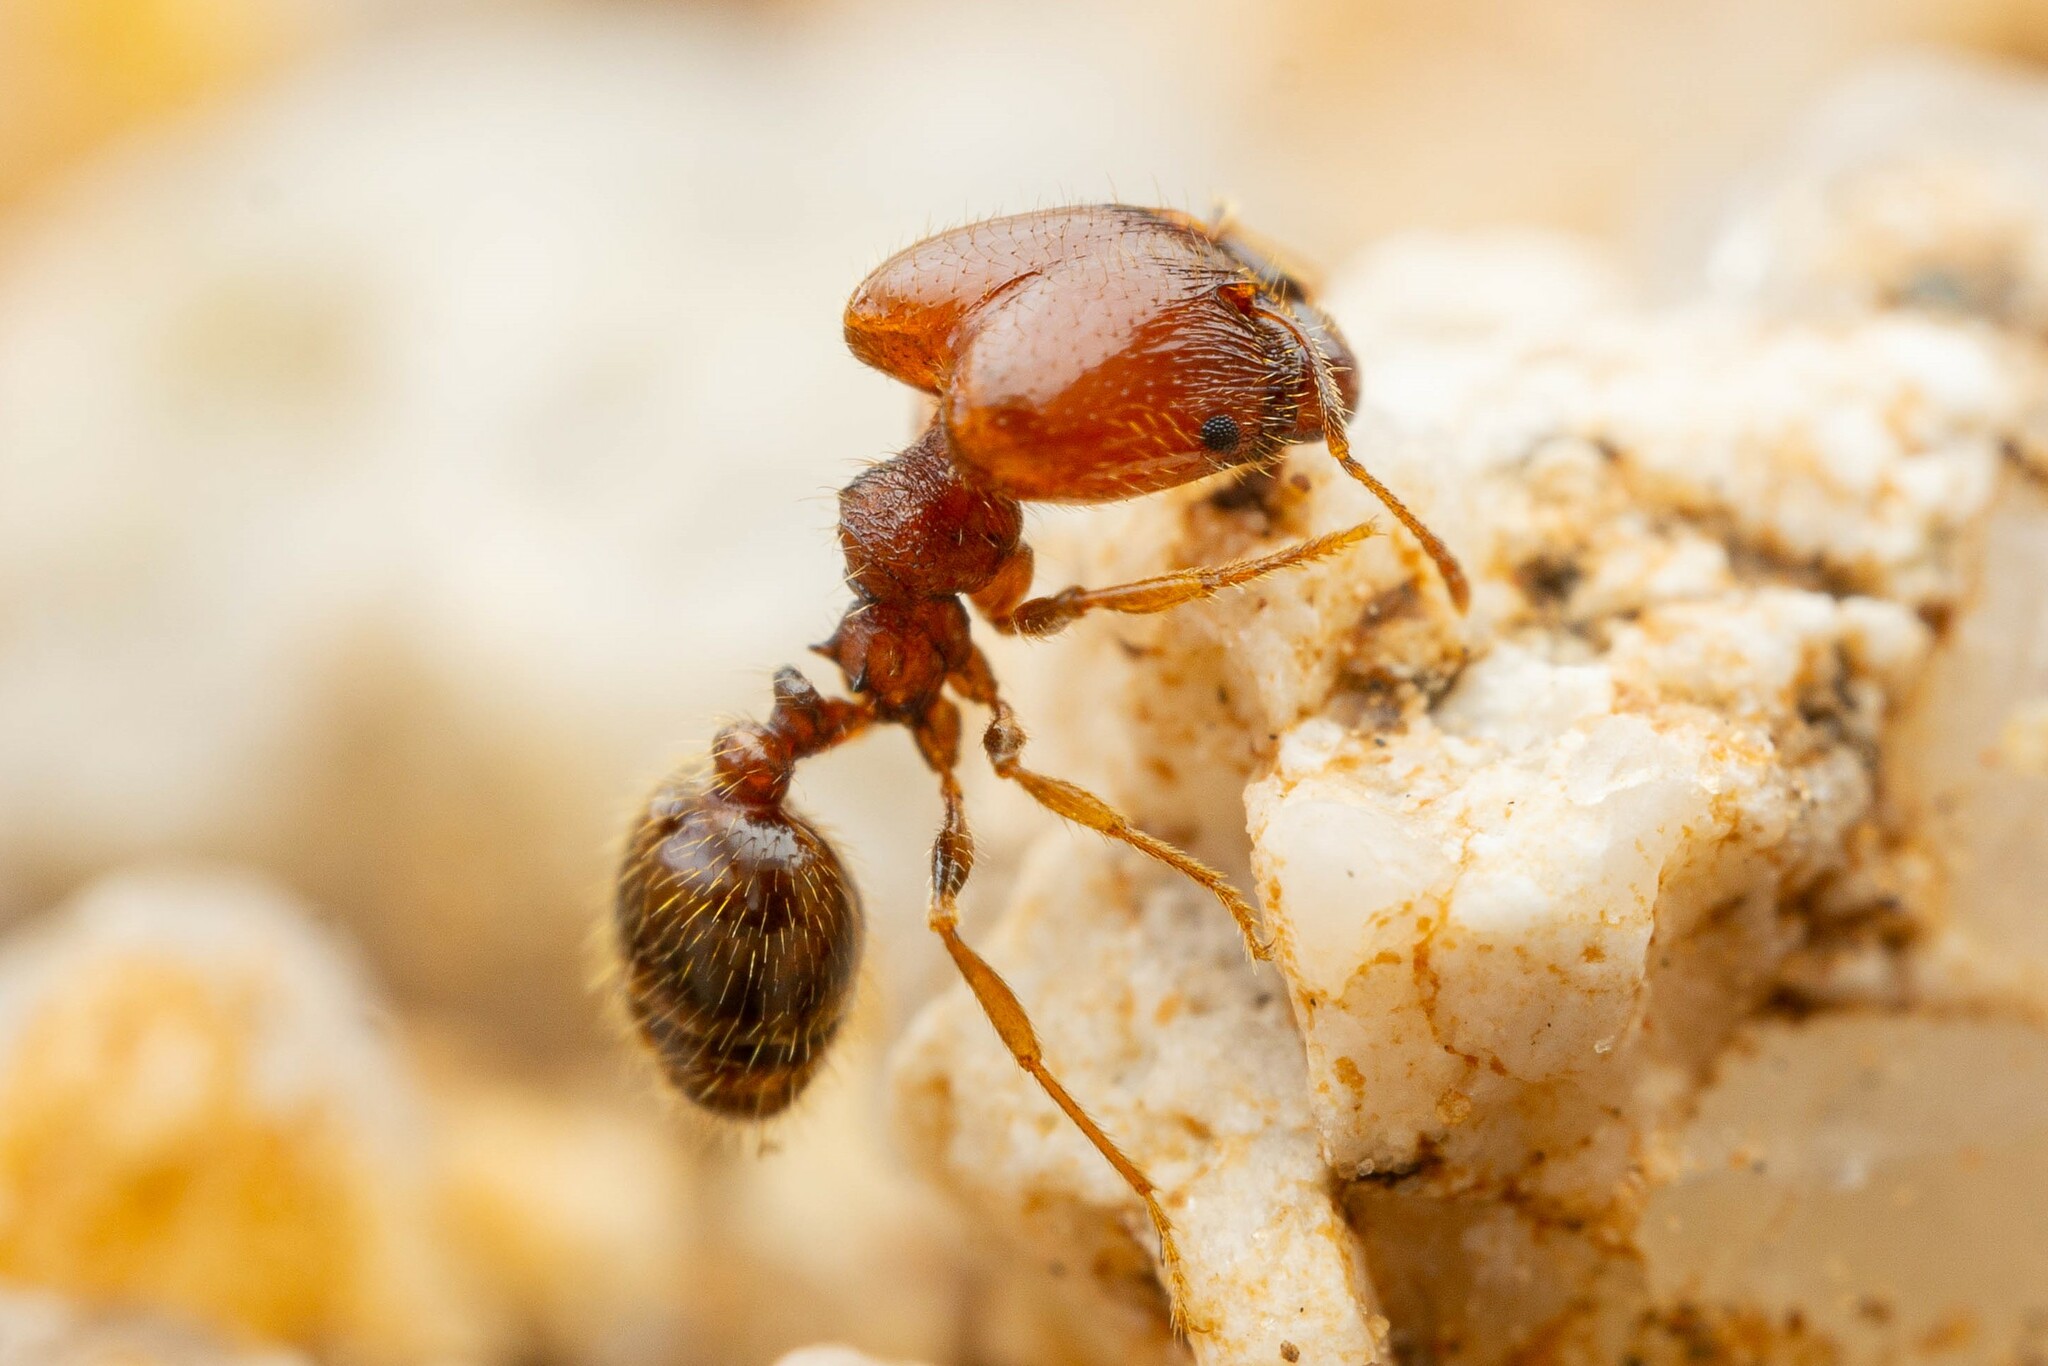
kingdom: Animalia
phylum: Arthropoda
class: Insecta
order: Hymenoptera
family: Formicidae
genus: Pheidole
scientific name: Pheidole xerophila
